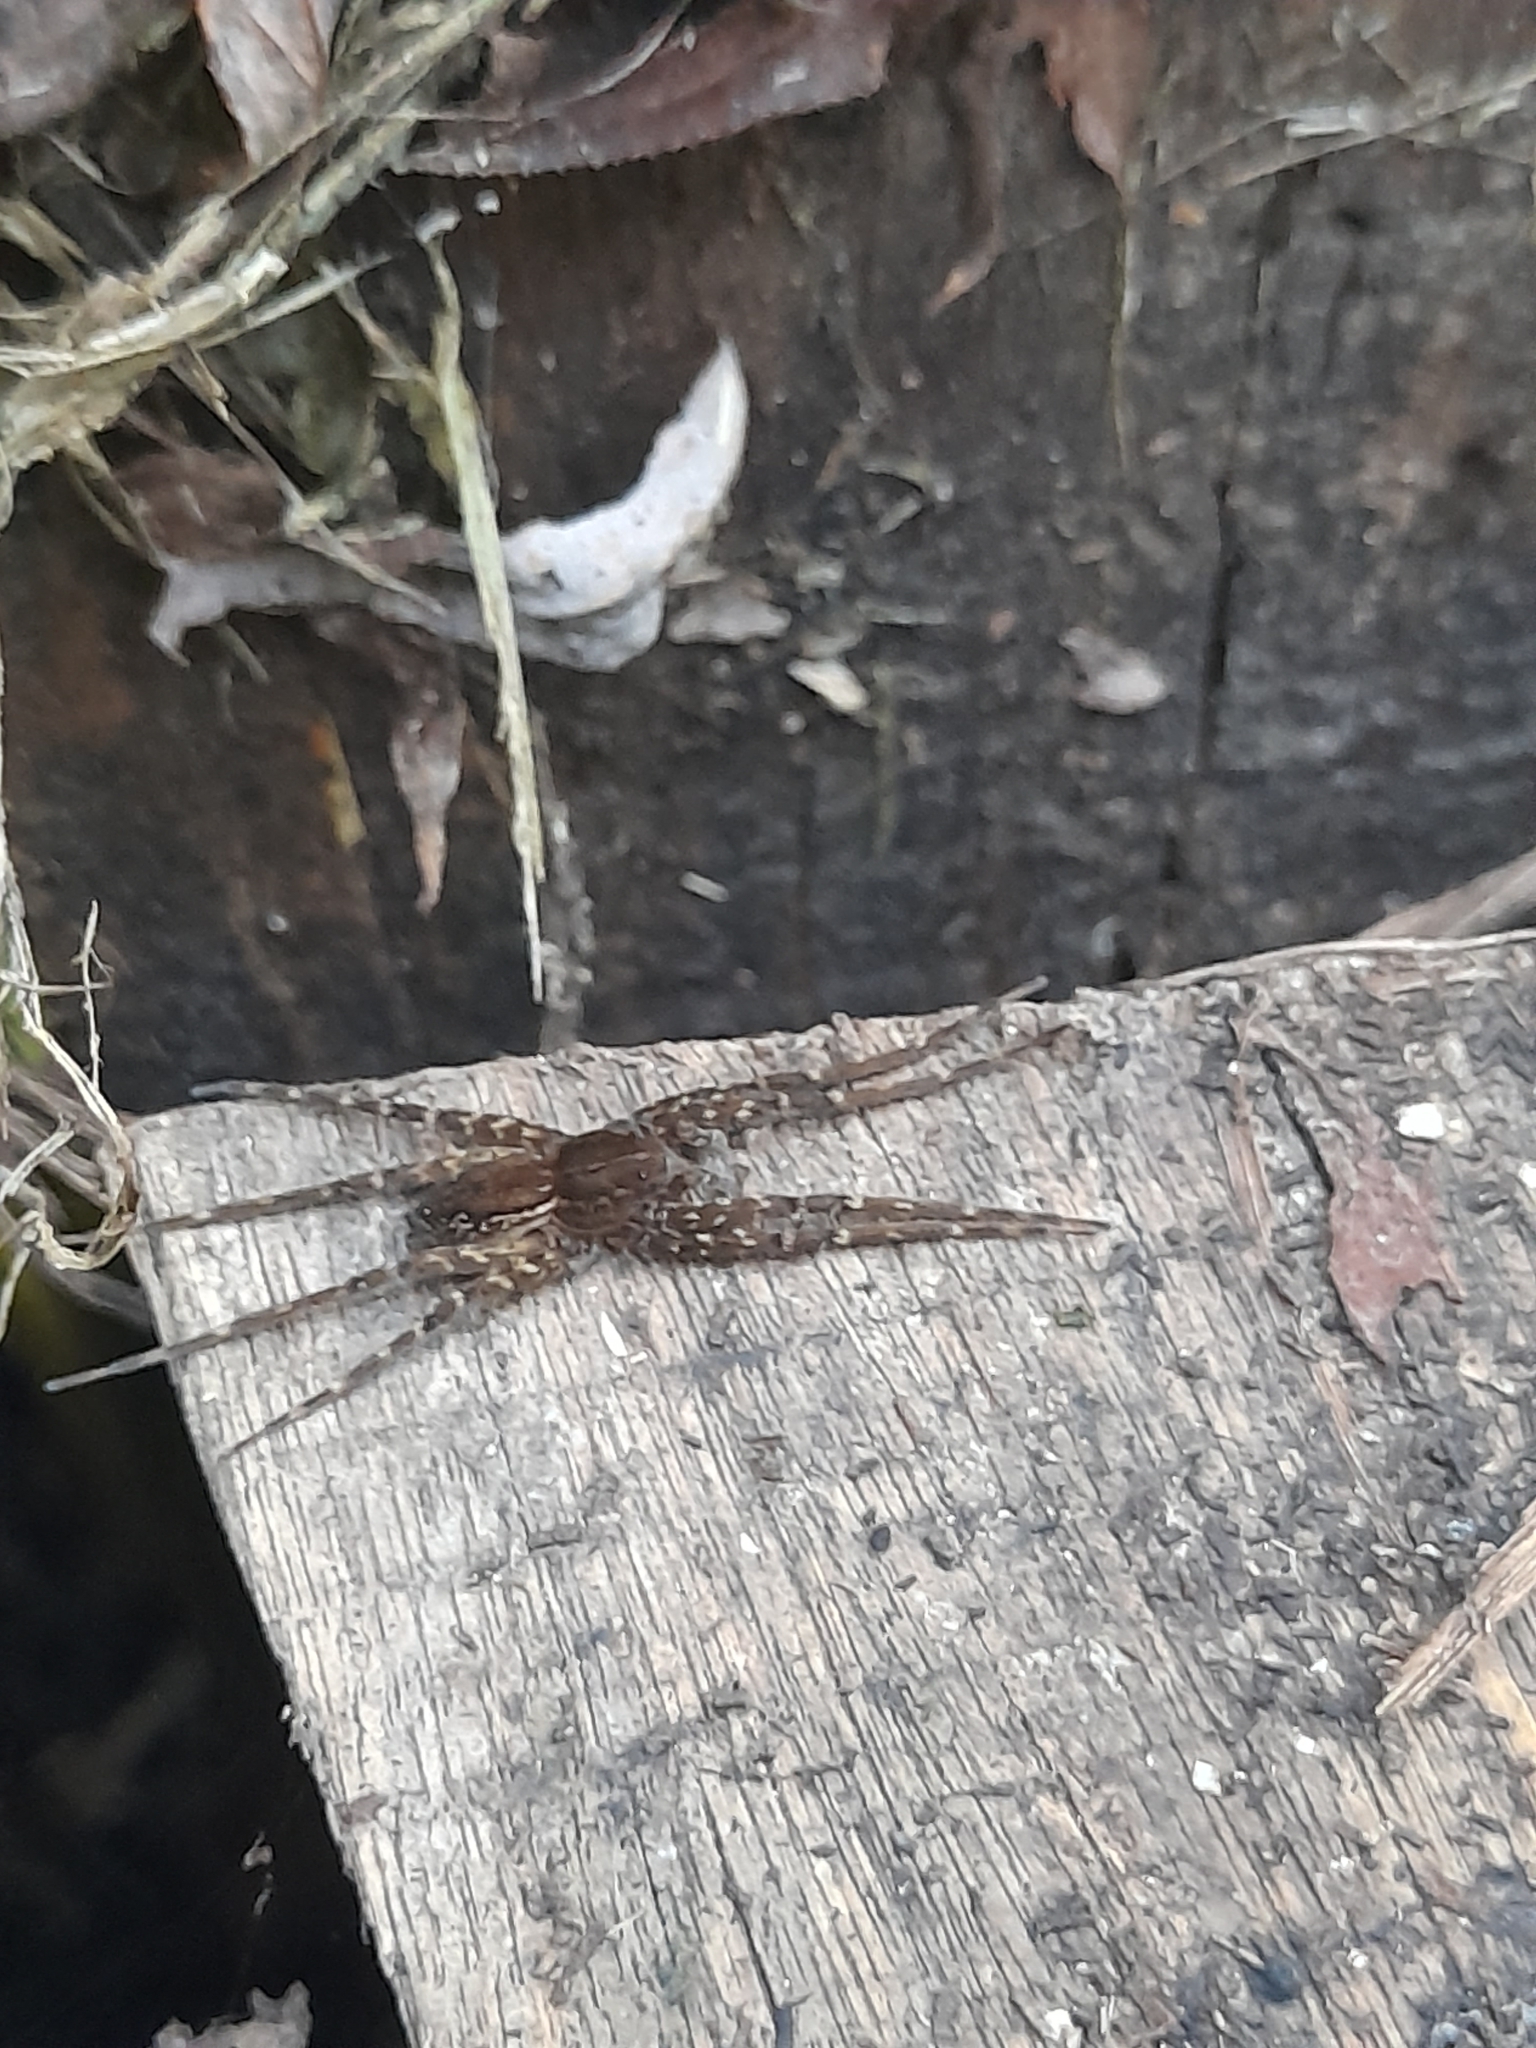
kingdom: Animalia
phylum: Arthropoda
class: Arachnida
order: Araneae
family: Pisauridae
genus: Architis
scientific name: Architis capricorna
